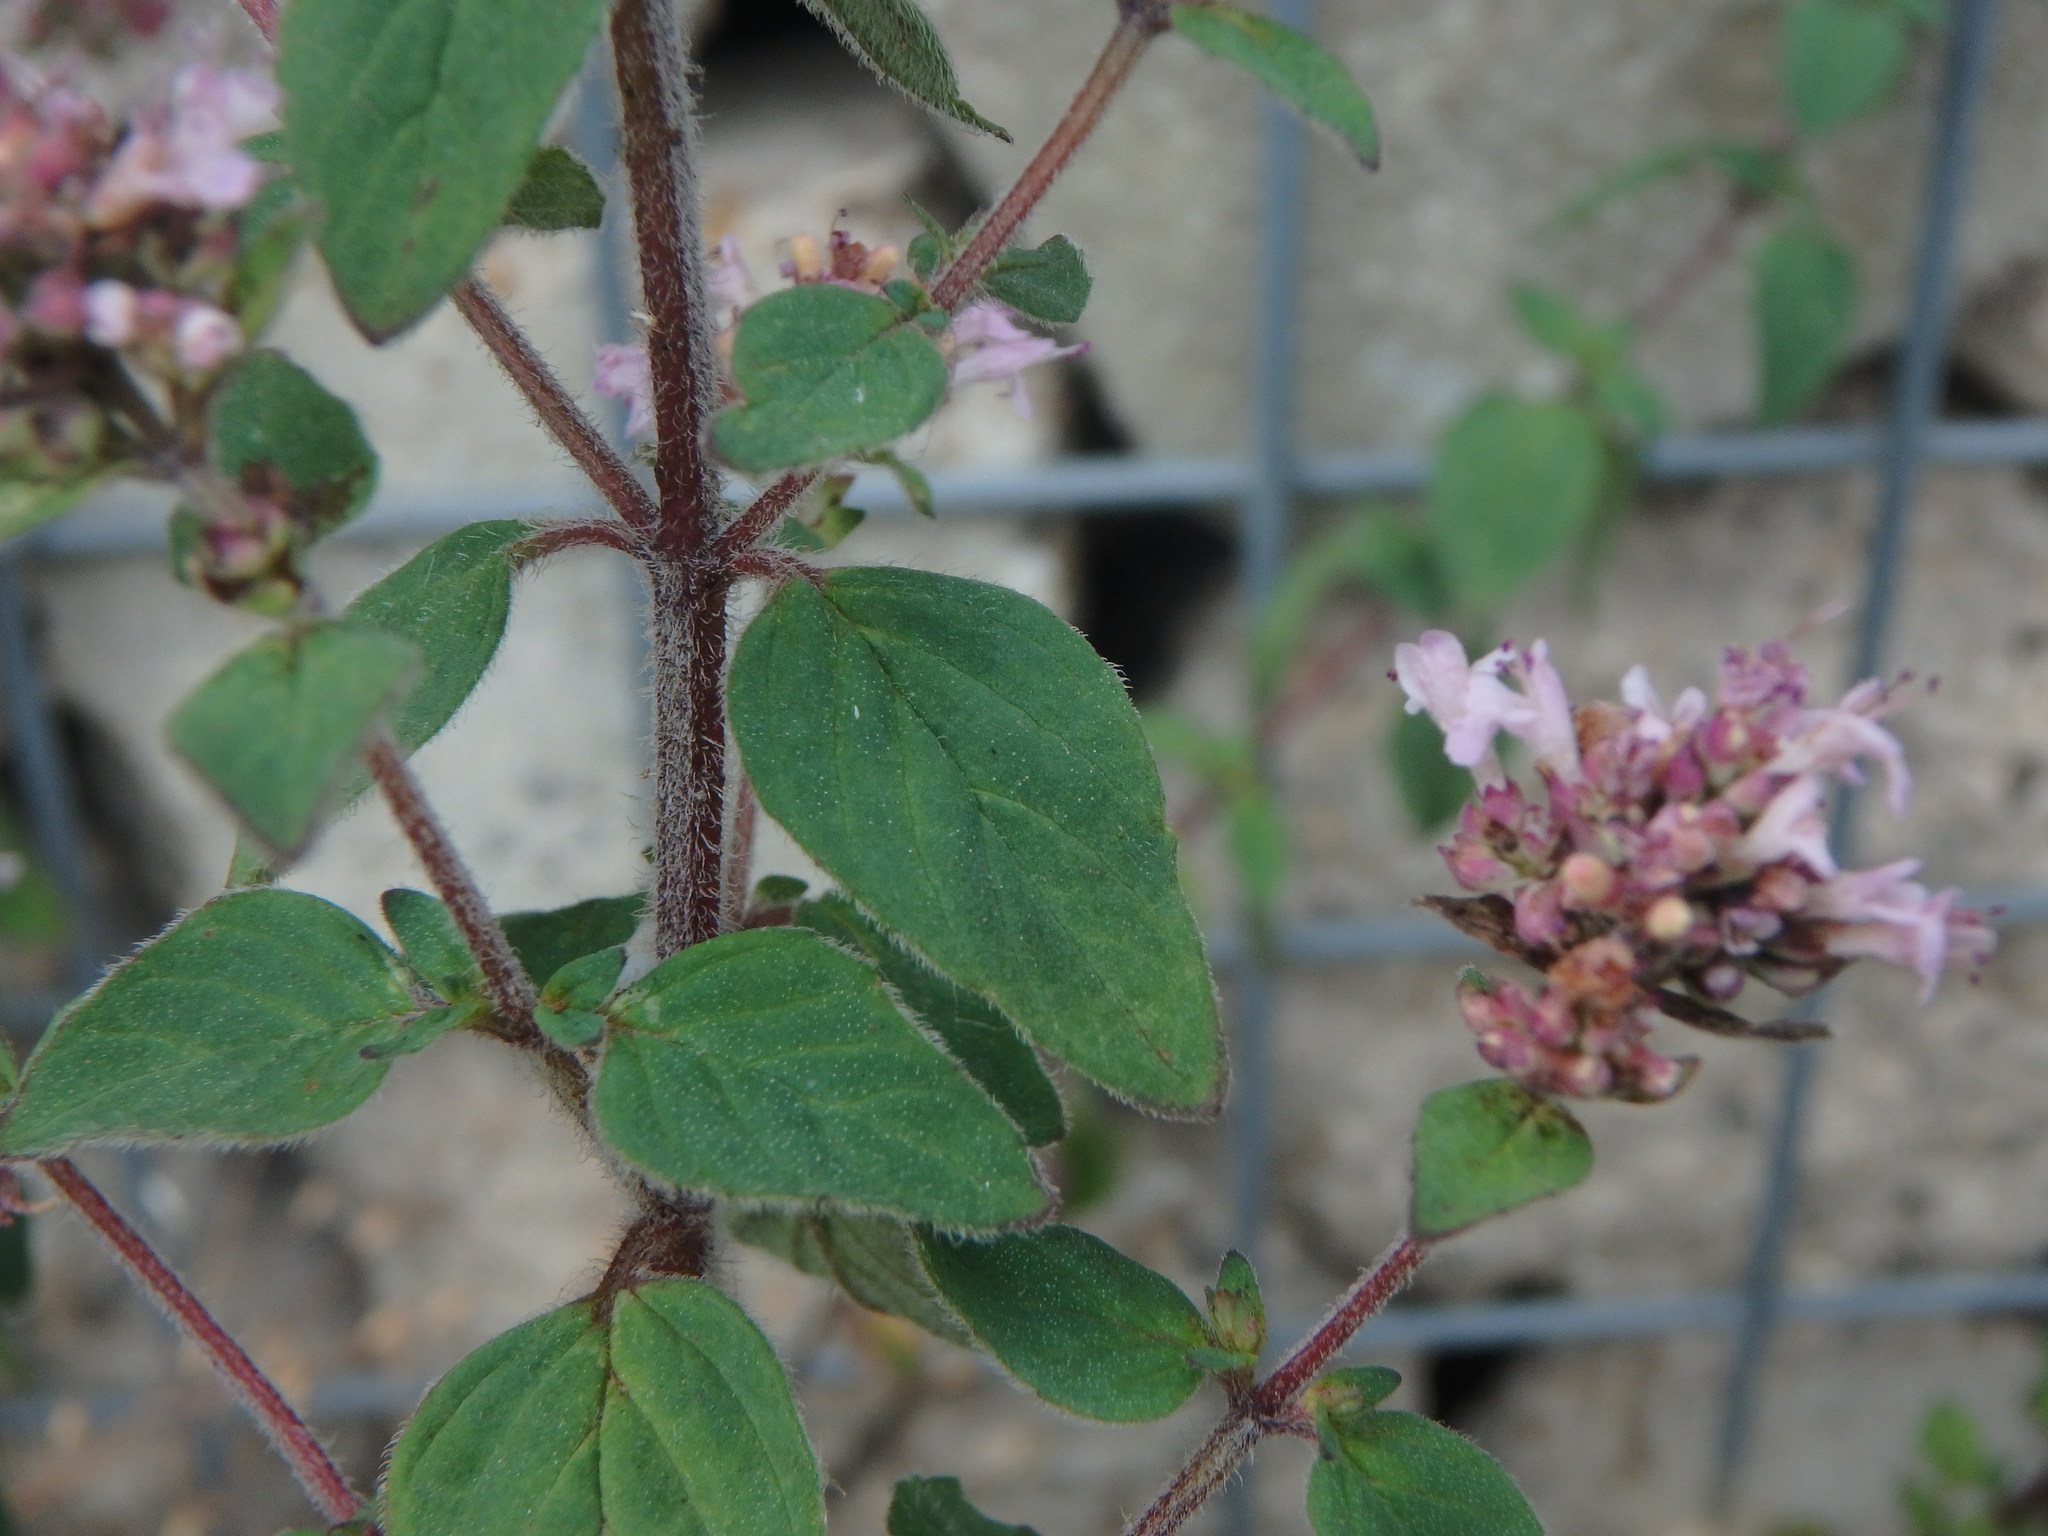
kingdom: Plantae
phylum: Tracheophyta
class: Magnoliopsida
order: Lamiales
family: Lamiaceae
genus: Origanum
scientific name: Origanum vulgare
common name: Wild marjoram
